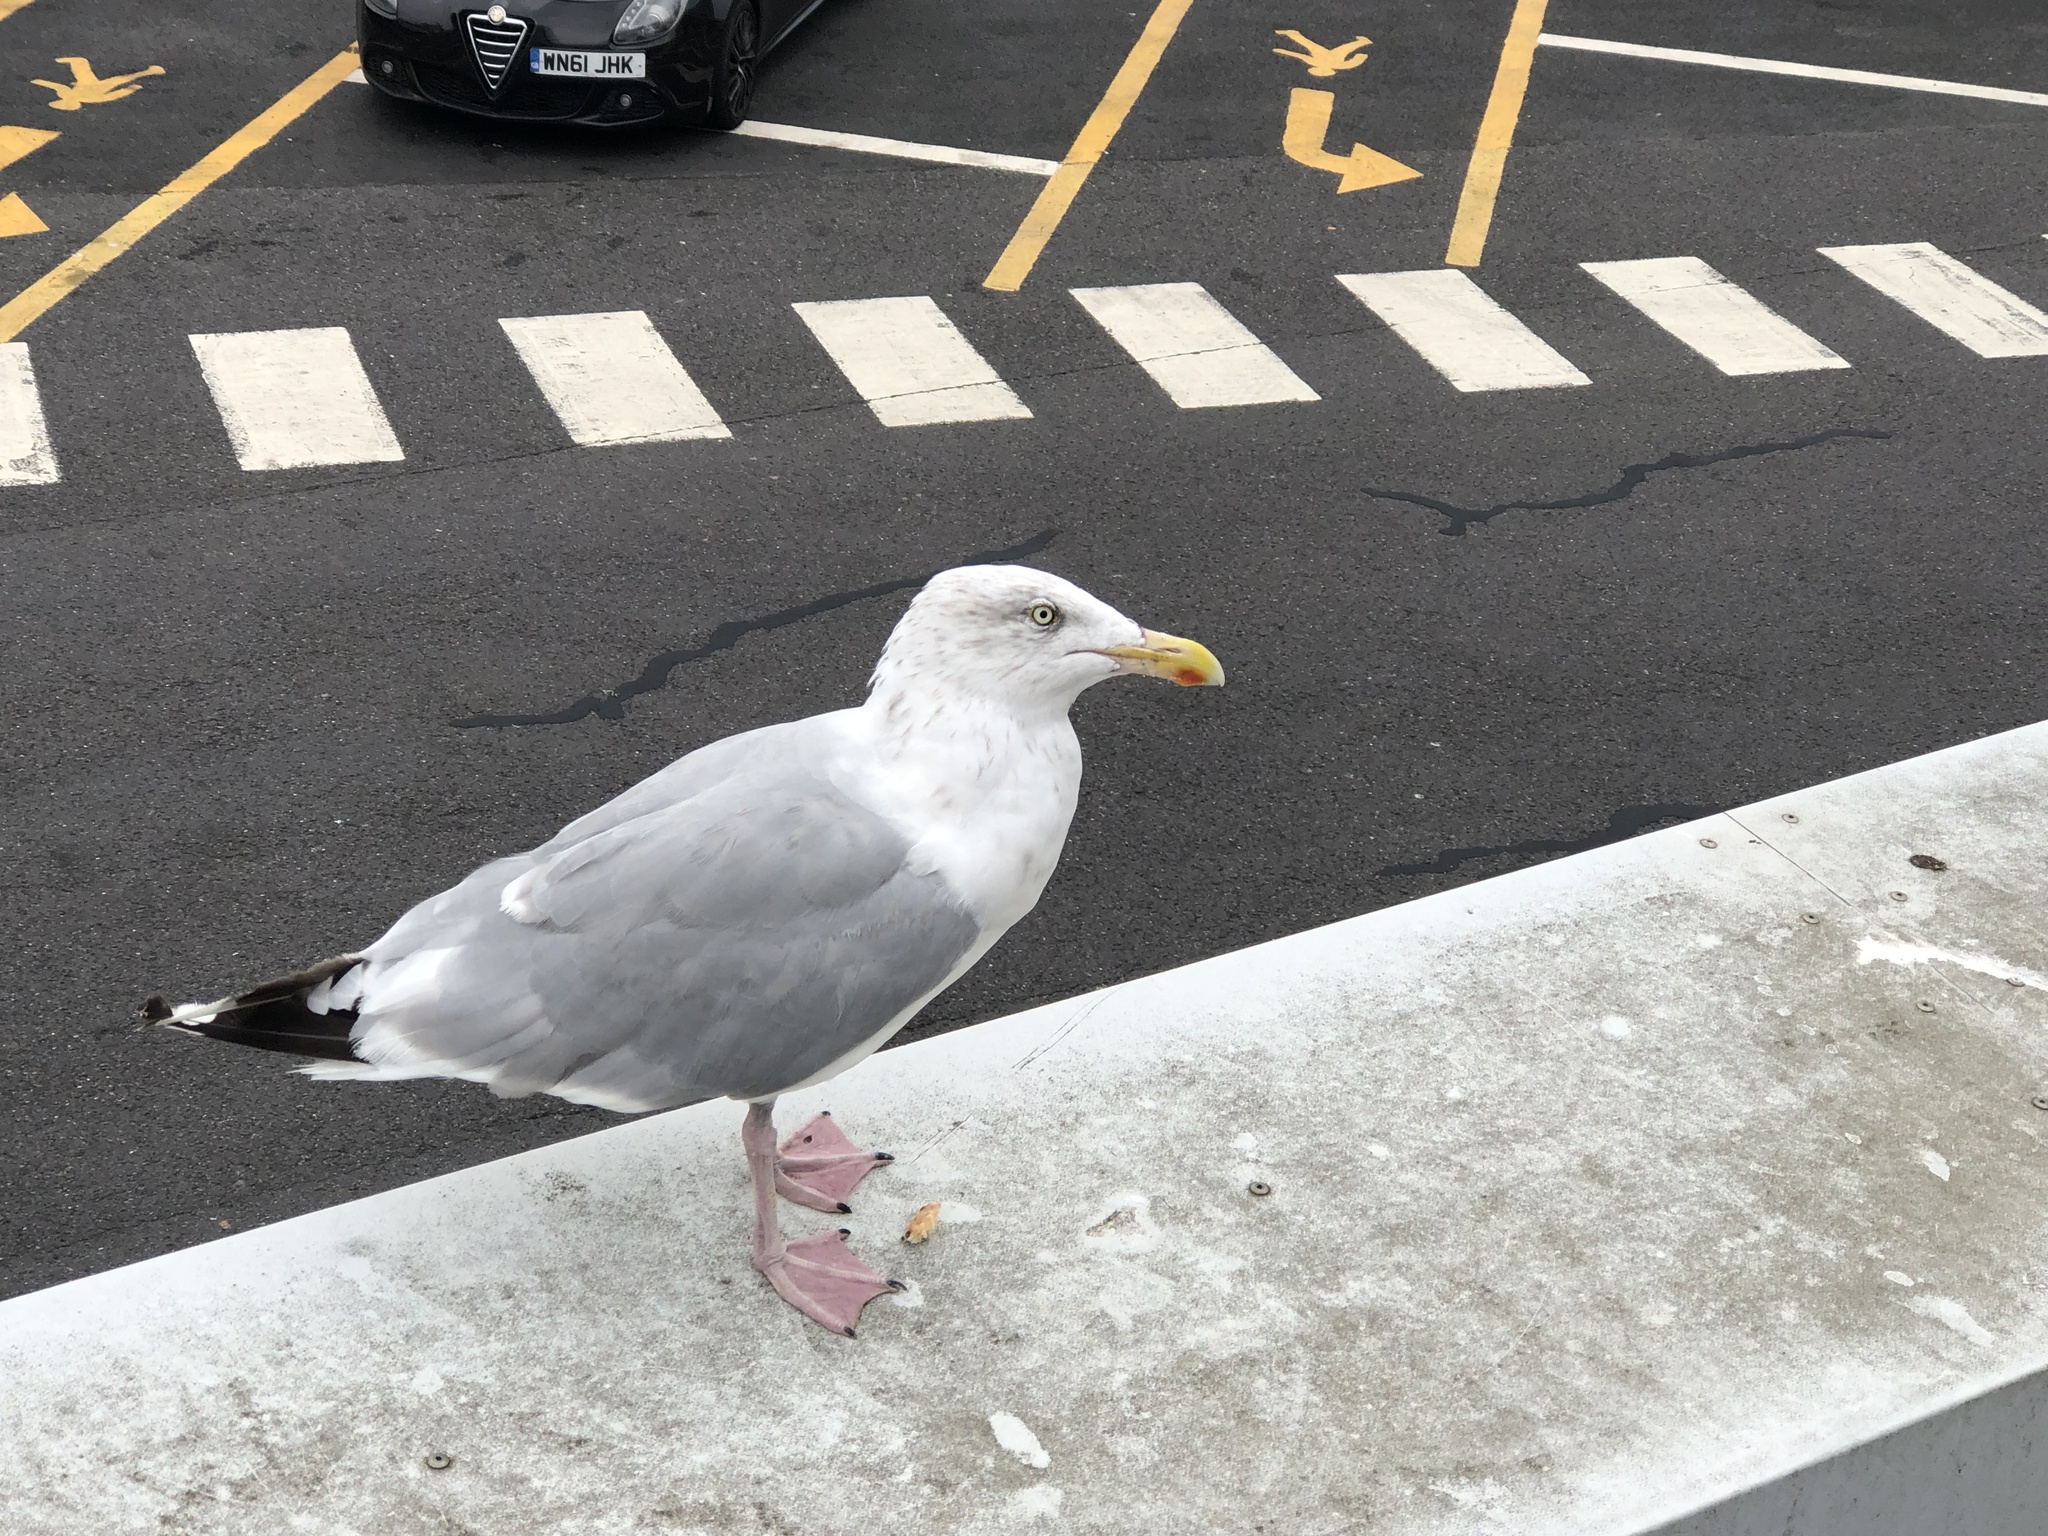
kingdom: Animalia
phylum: Chordata
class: Aves
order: Charadriiformes
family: Laridae
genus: Larus
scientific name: Larus argentatus
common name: Herring gull
